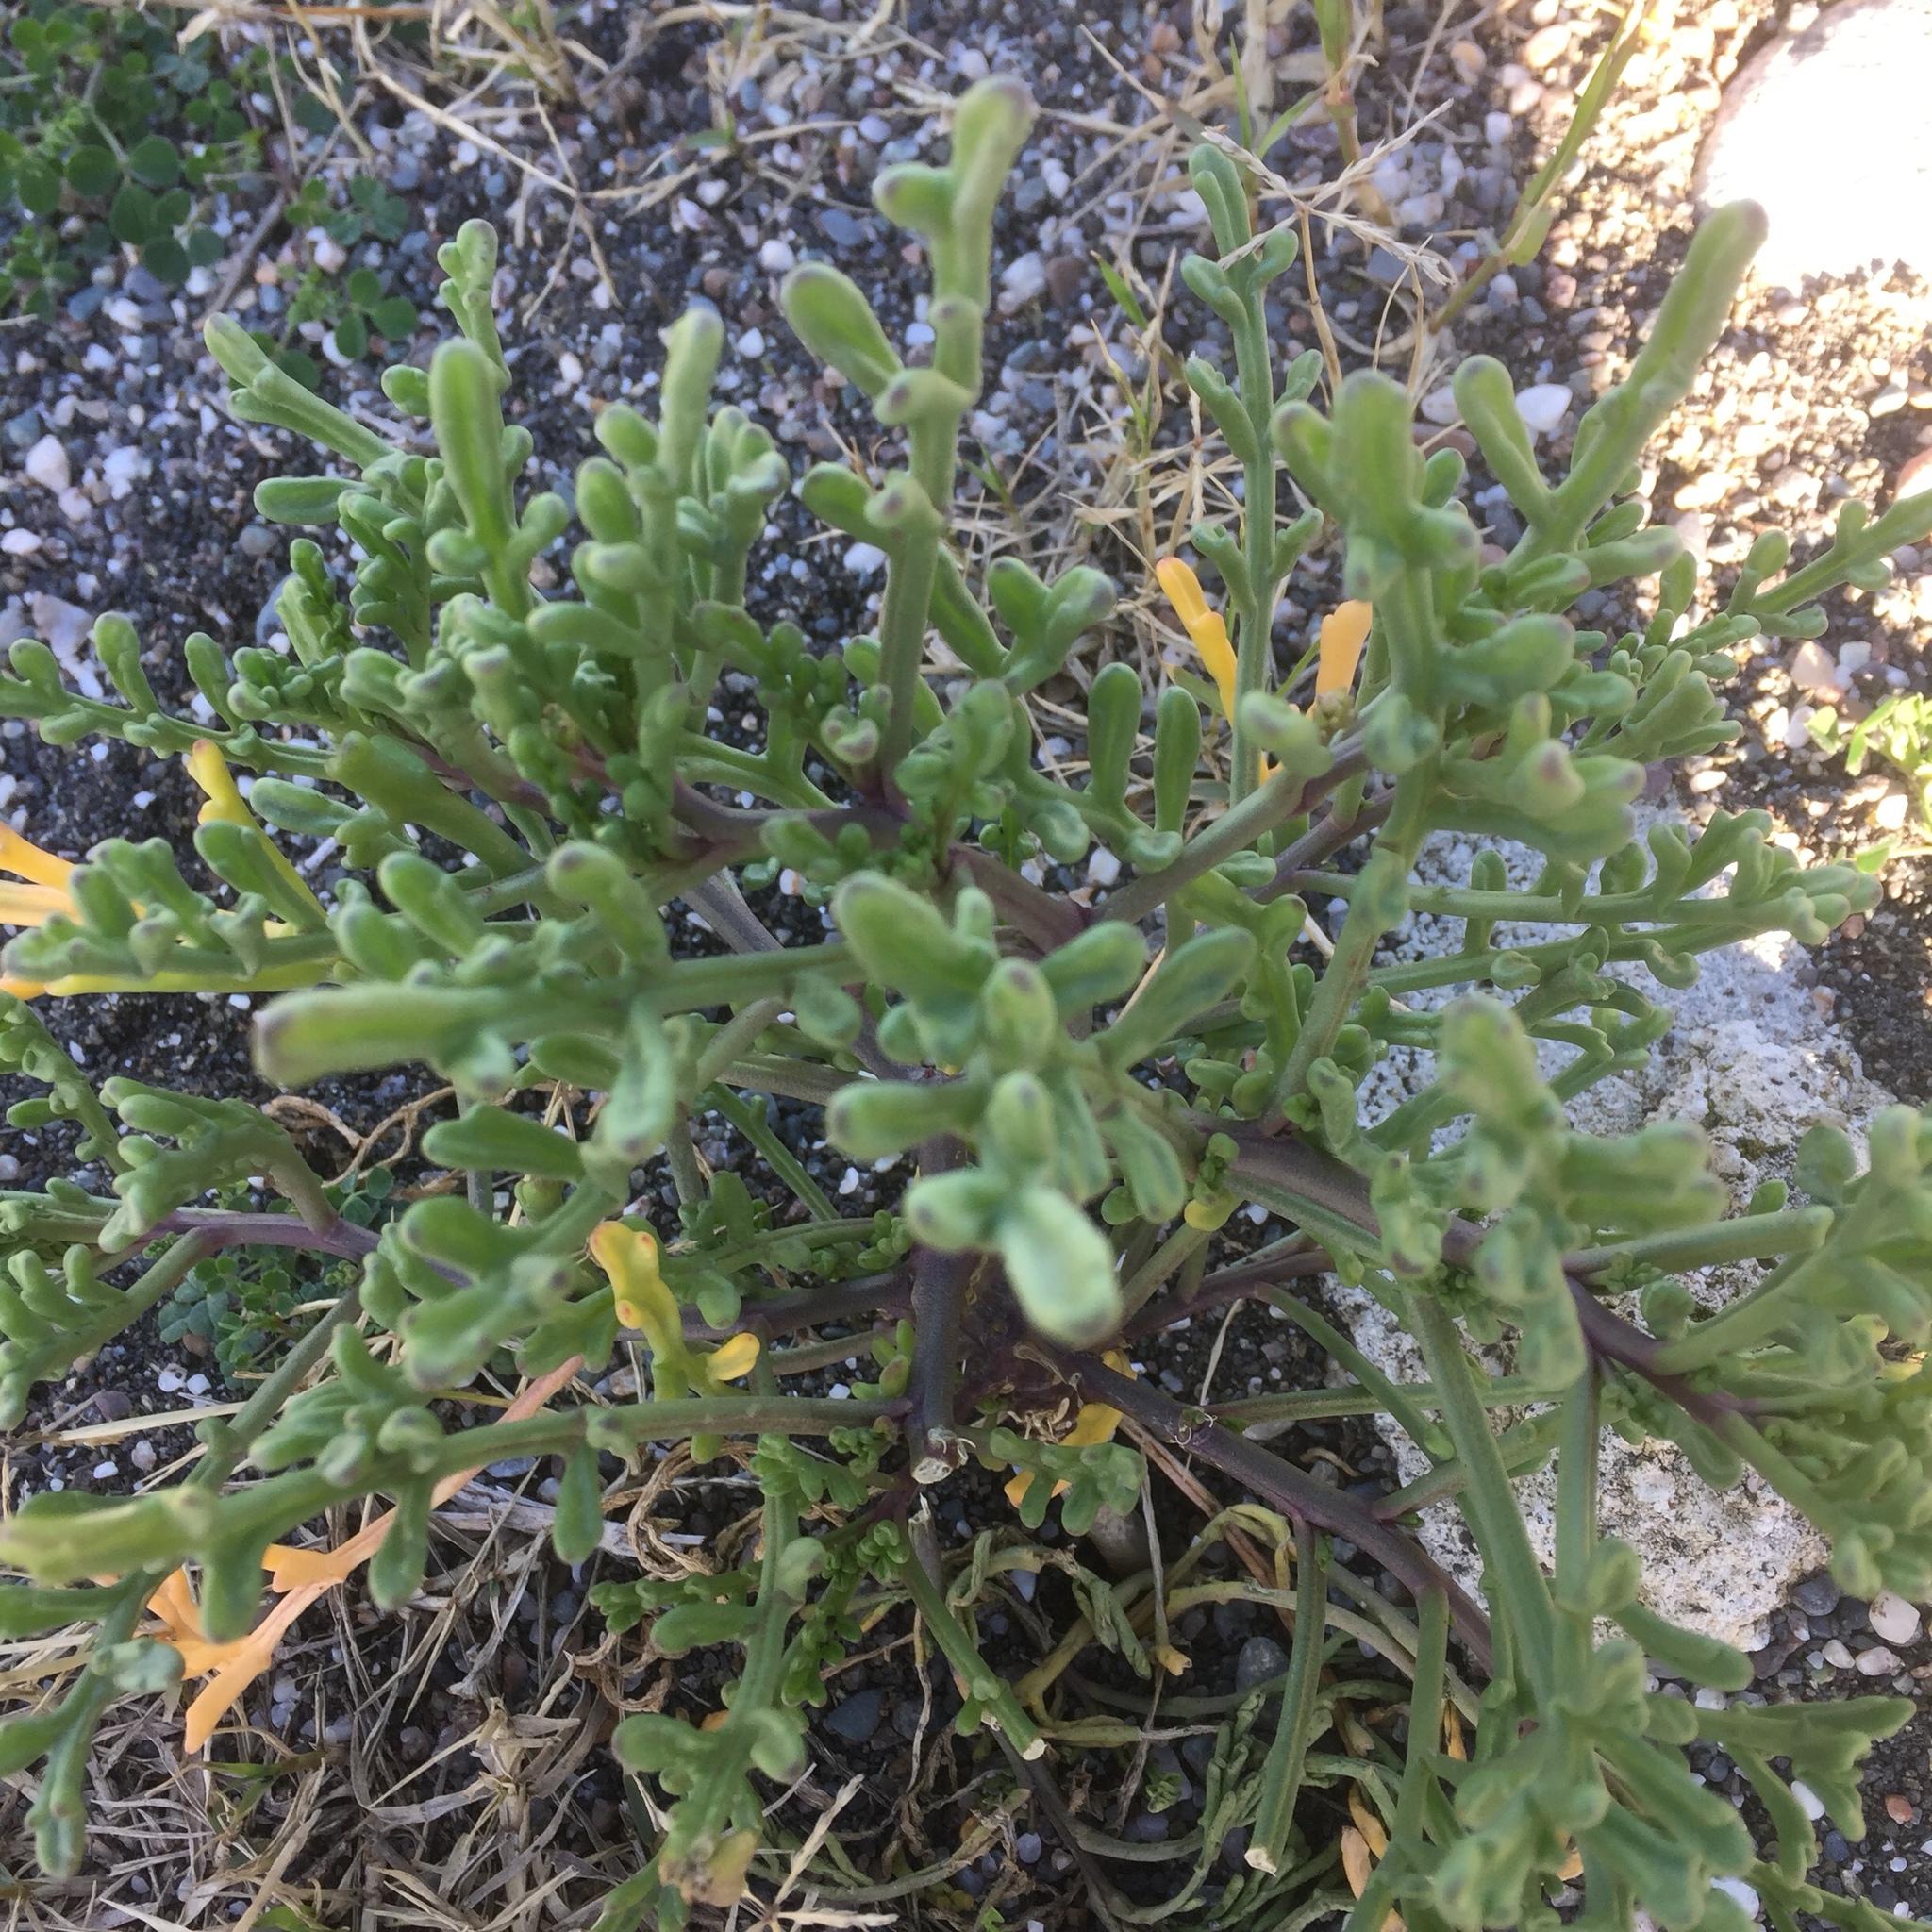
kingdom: Plantae
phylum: Tracheophyta
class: Magnoliopsida
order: Brassicales
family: Brassicaceae
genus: Cakile
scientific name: Cakile maritima
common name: Sea rocket
